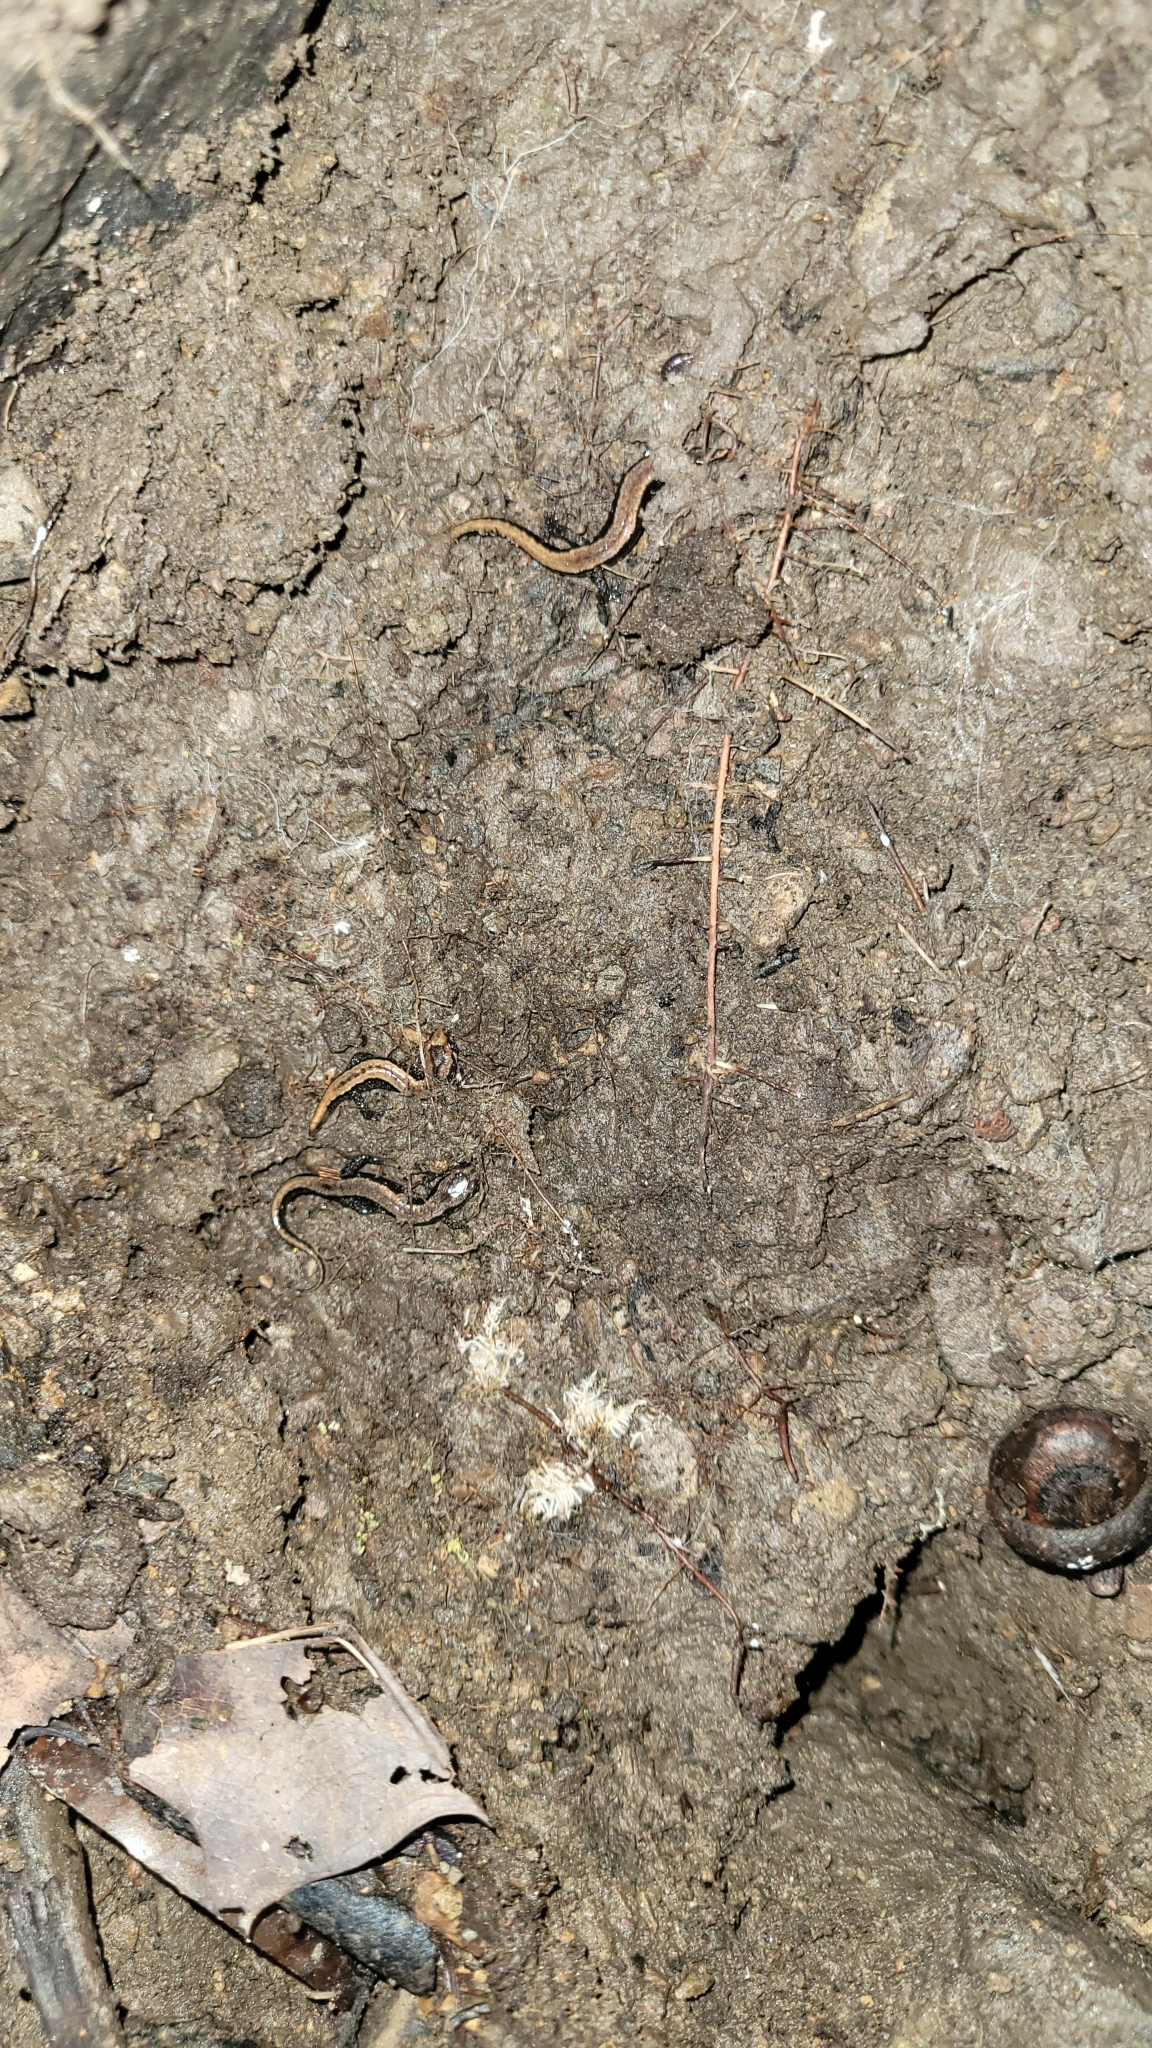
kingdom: Animalia
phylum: Chordata
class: Amphibia
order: Caudata
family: Plethodontidae
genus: Desmognathus
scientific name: Desmognathus ochrophaeus
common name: Allegheny mountain dusky salamander
